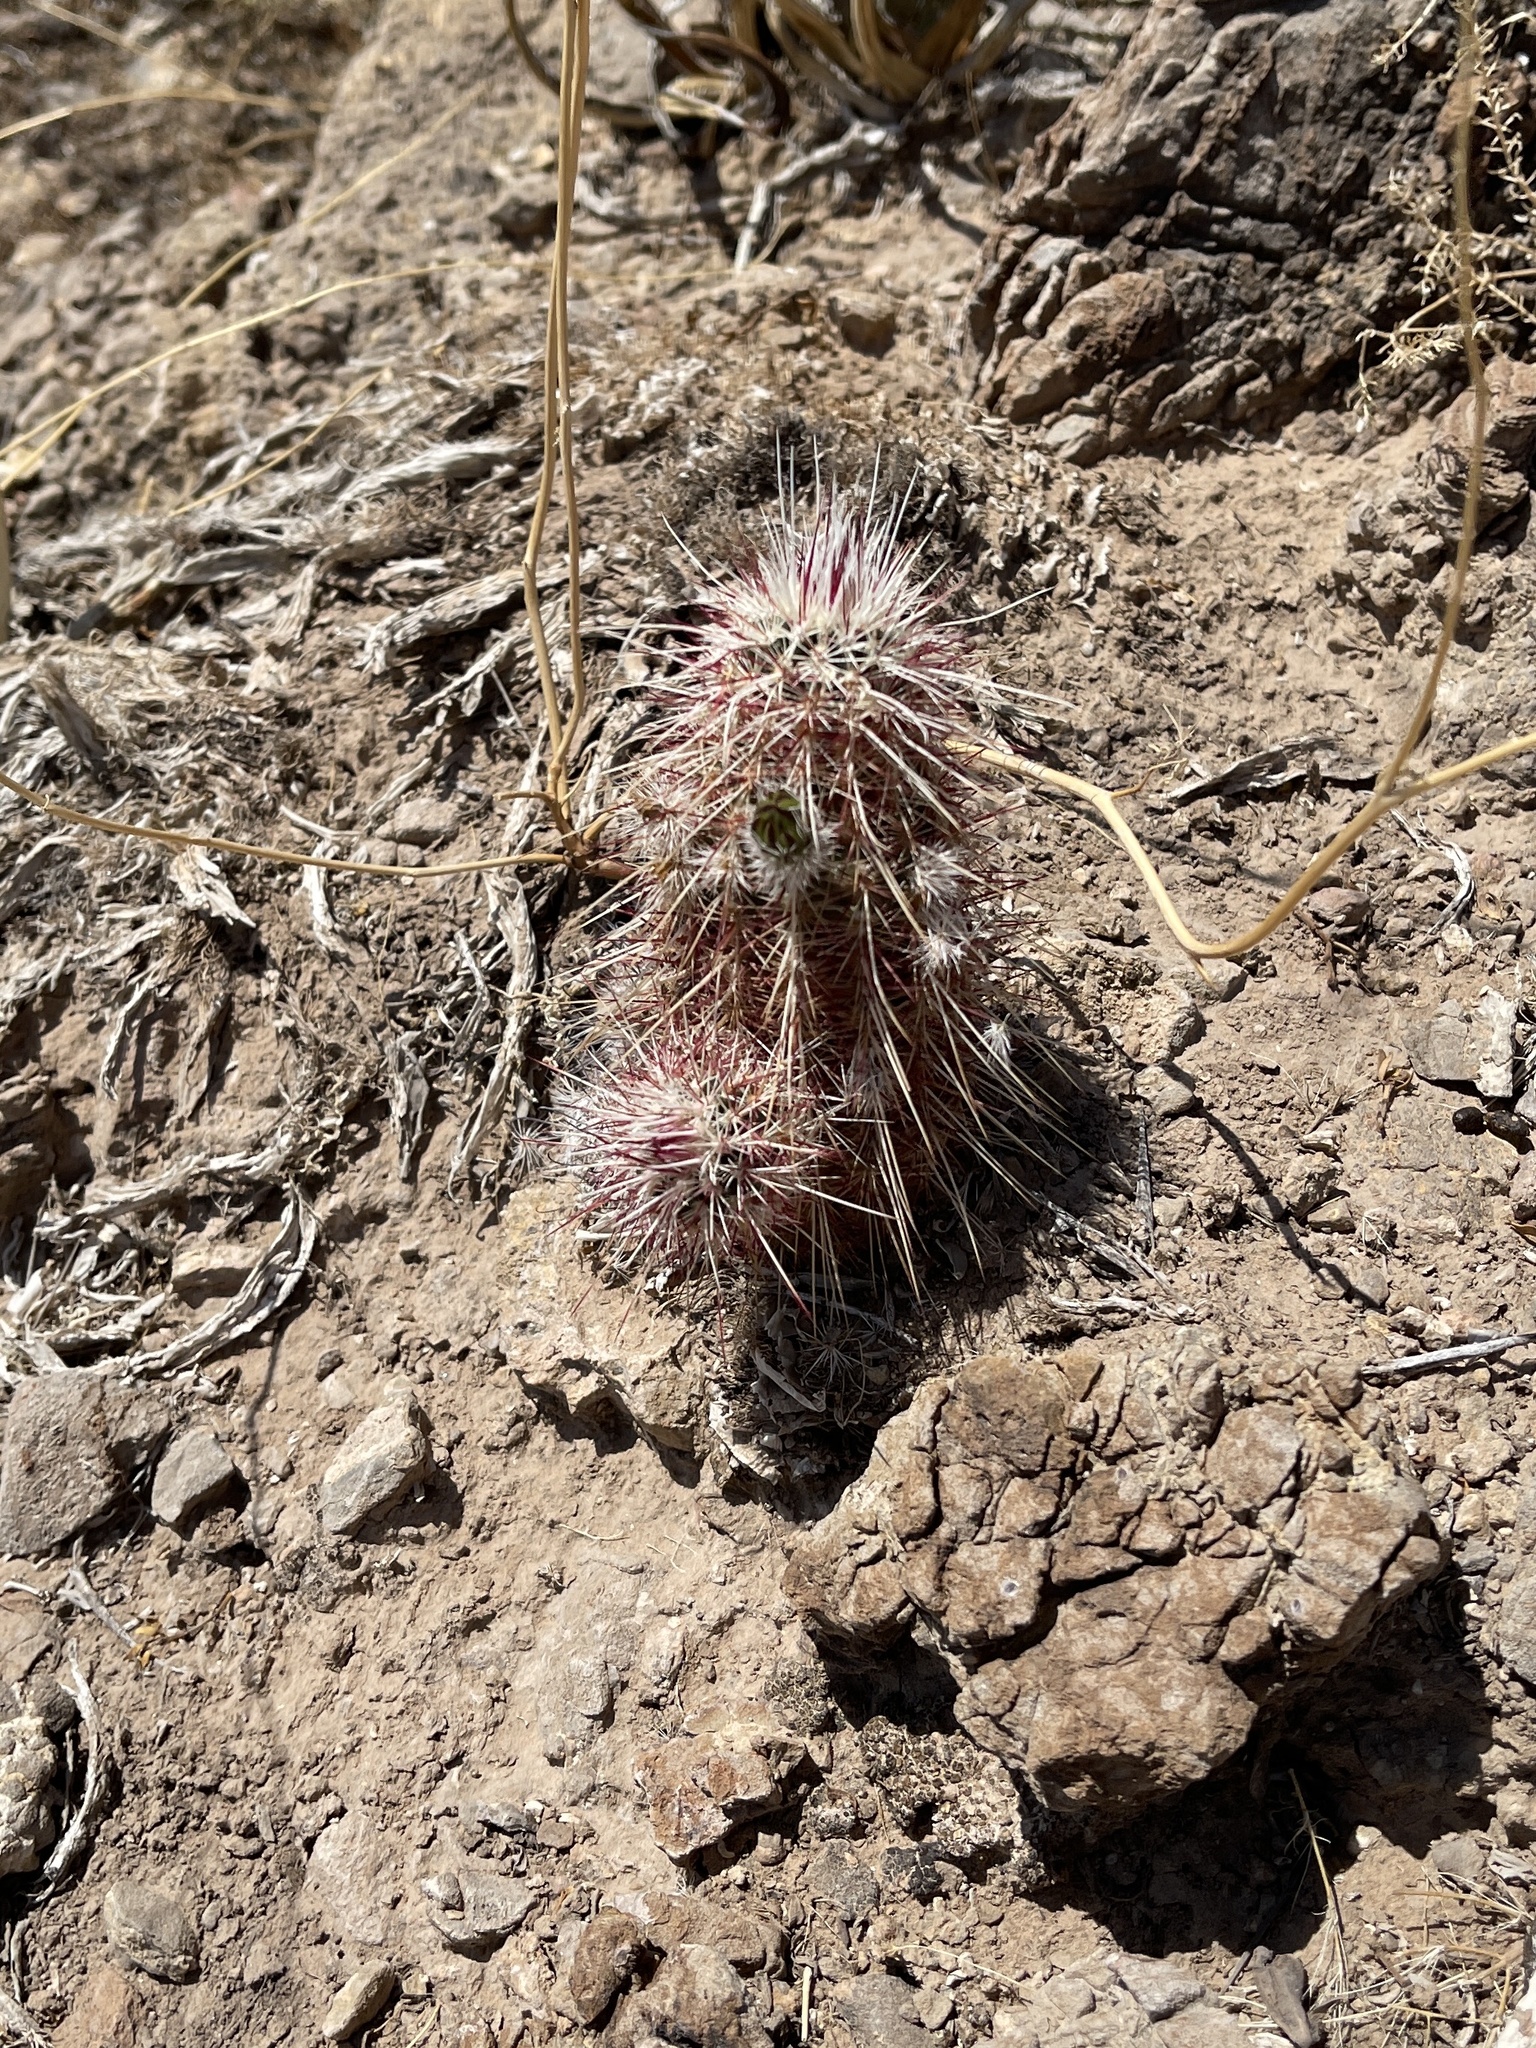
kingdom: Plantae
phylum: Tracheophyta
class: Magnoliopsida
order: Caryophyllales
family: Cactaceae
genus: Echinocereus
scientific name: Echinocereus viridiflorus
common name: Nylon hedgehog cactus
